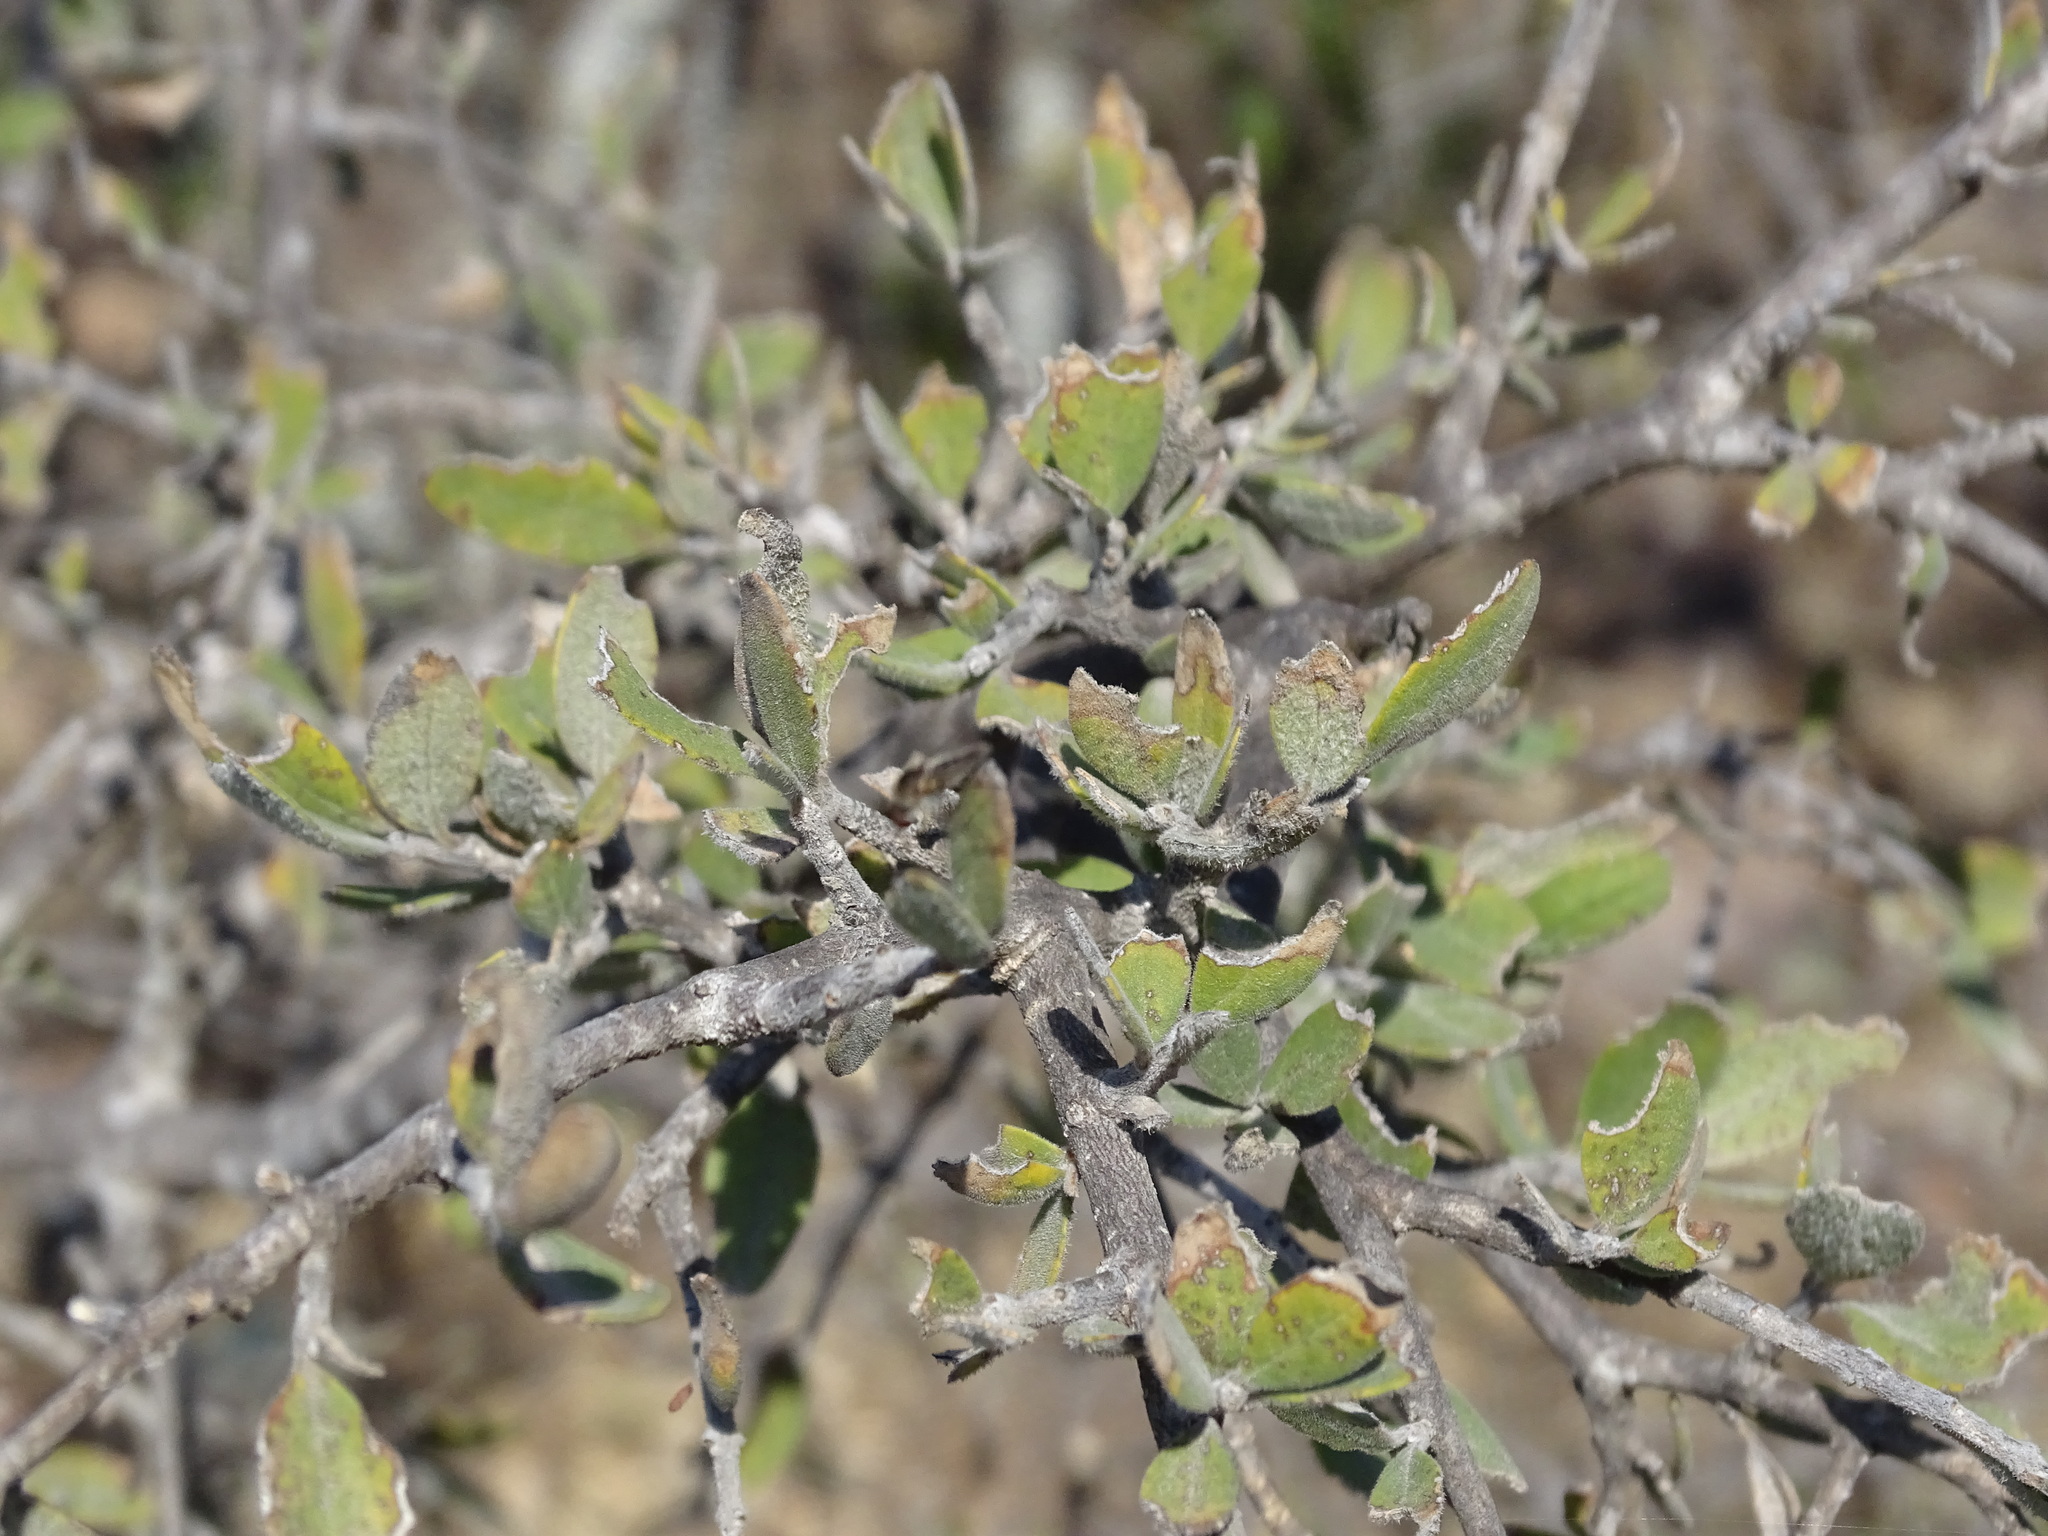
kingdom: Plantae
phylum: Tracheophyta
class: Magnoliopsida
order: Rosales
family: Rosaceae
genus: Malacomeles
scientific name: Malacomeles denticulata
